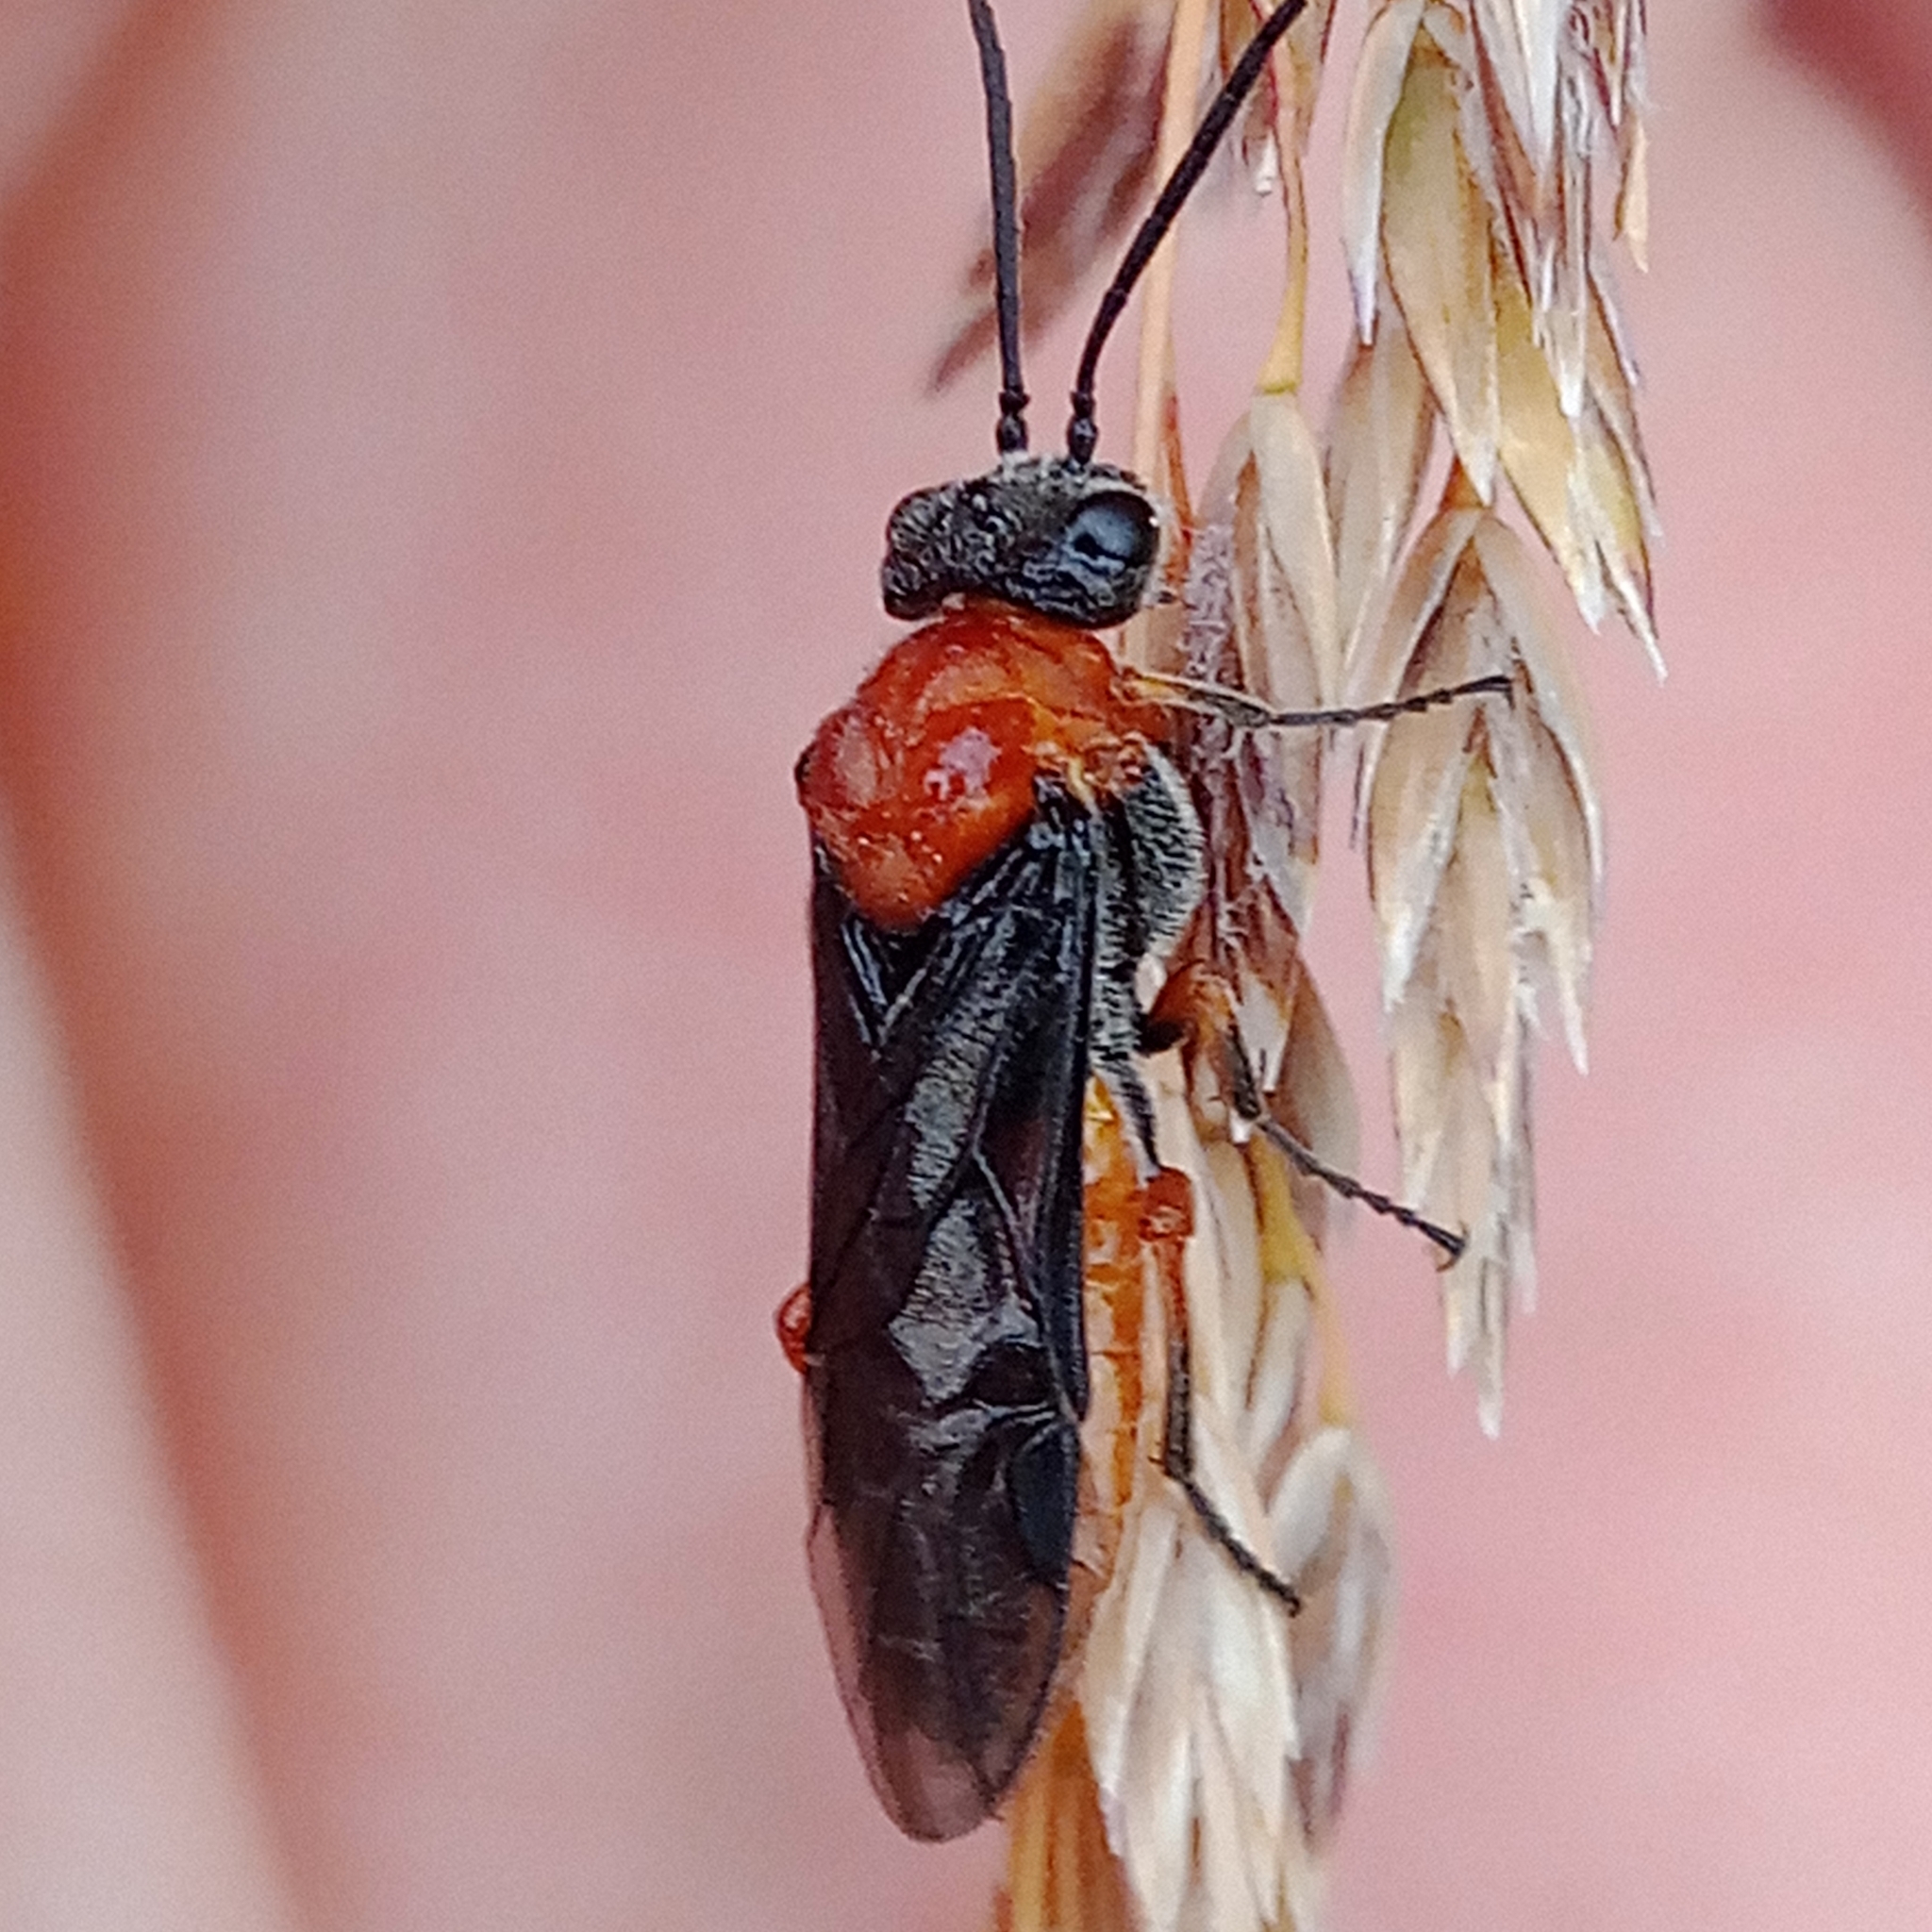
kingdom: Animalia
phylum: Arthropoda
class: Insecta
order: Hymenoptera
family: Tenthredinidae
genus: Dolerus
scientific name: Dolerus germanicus
